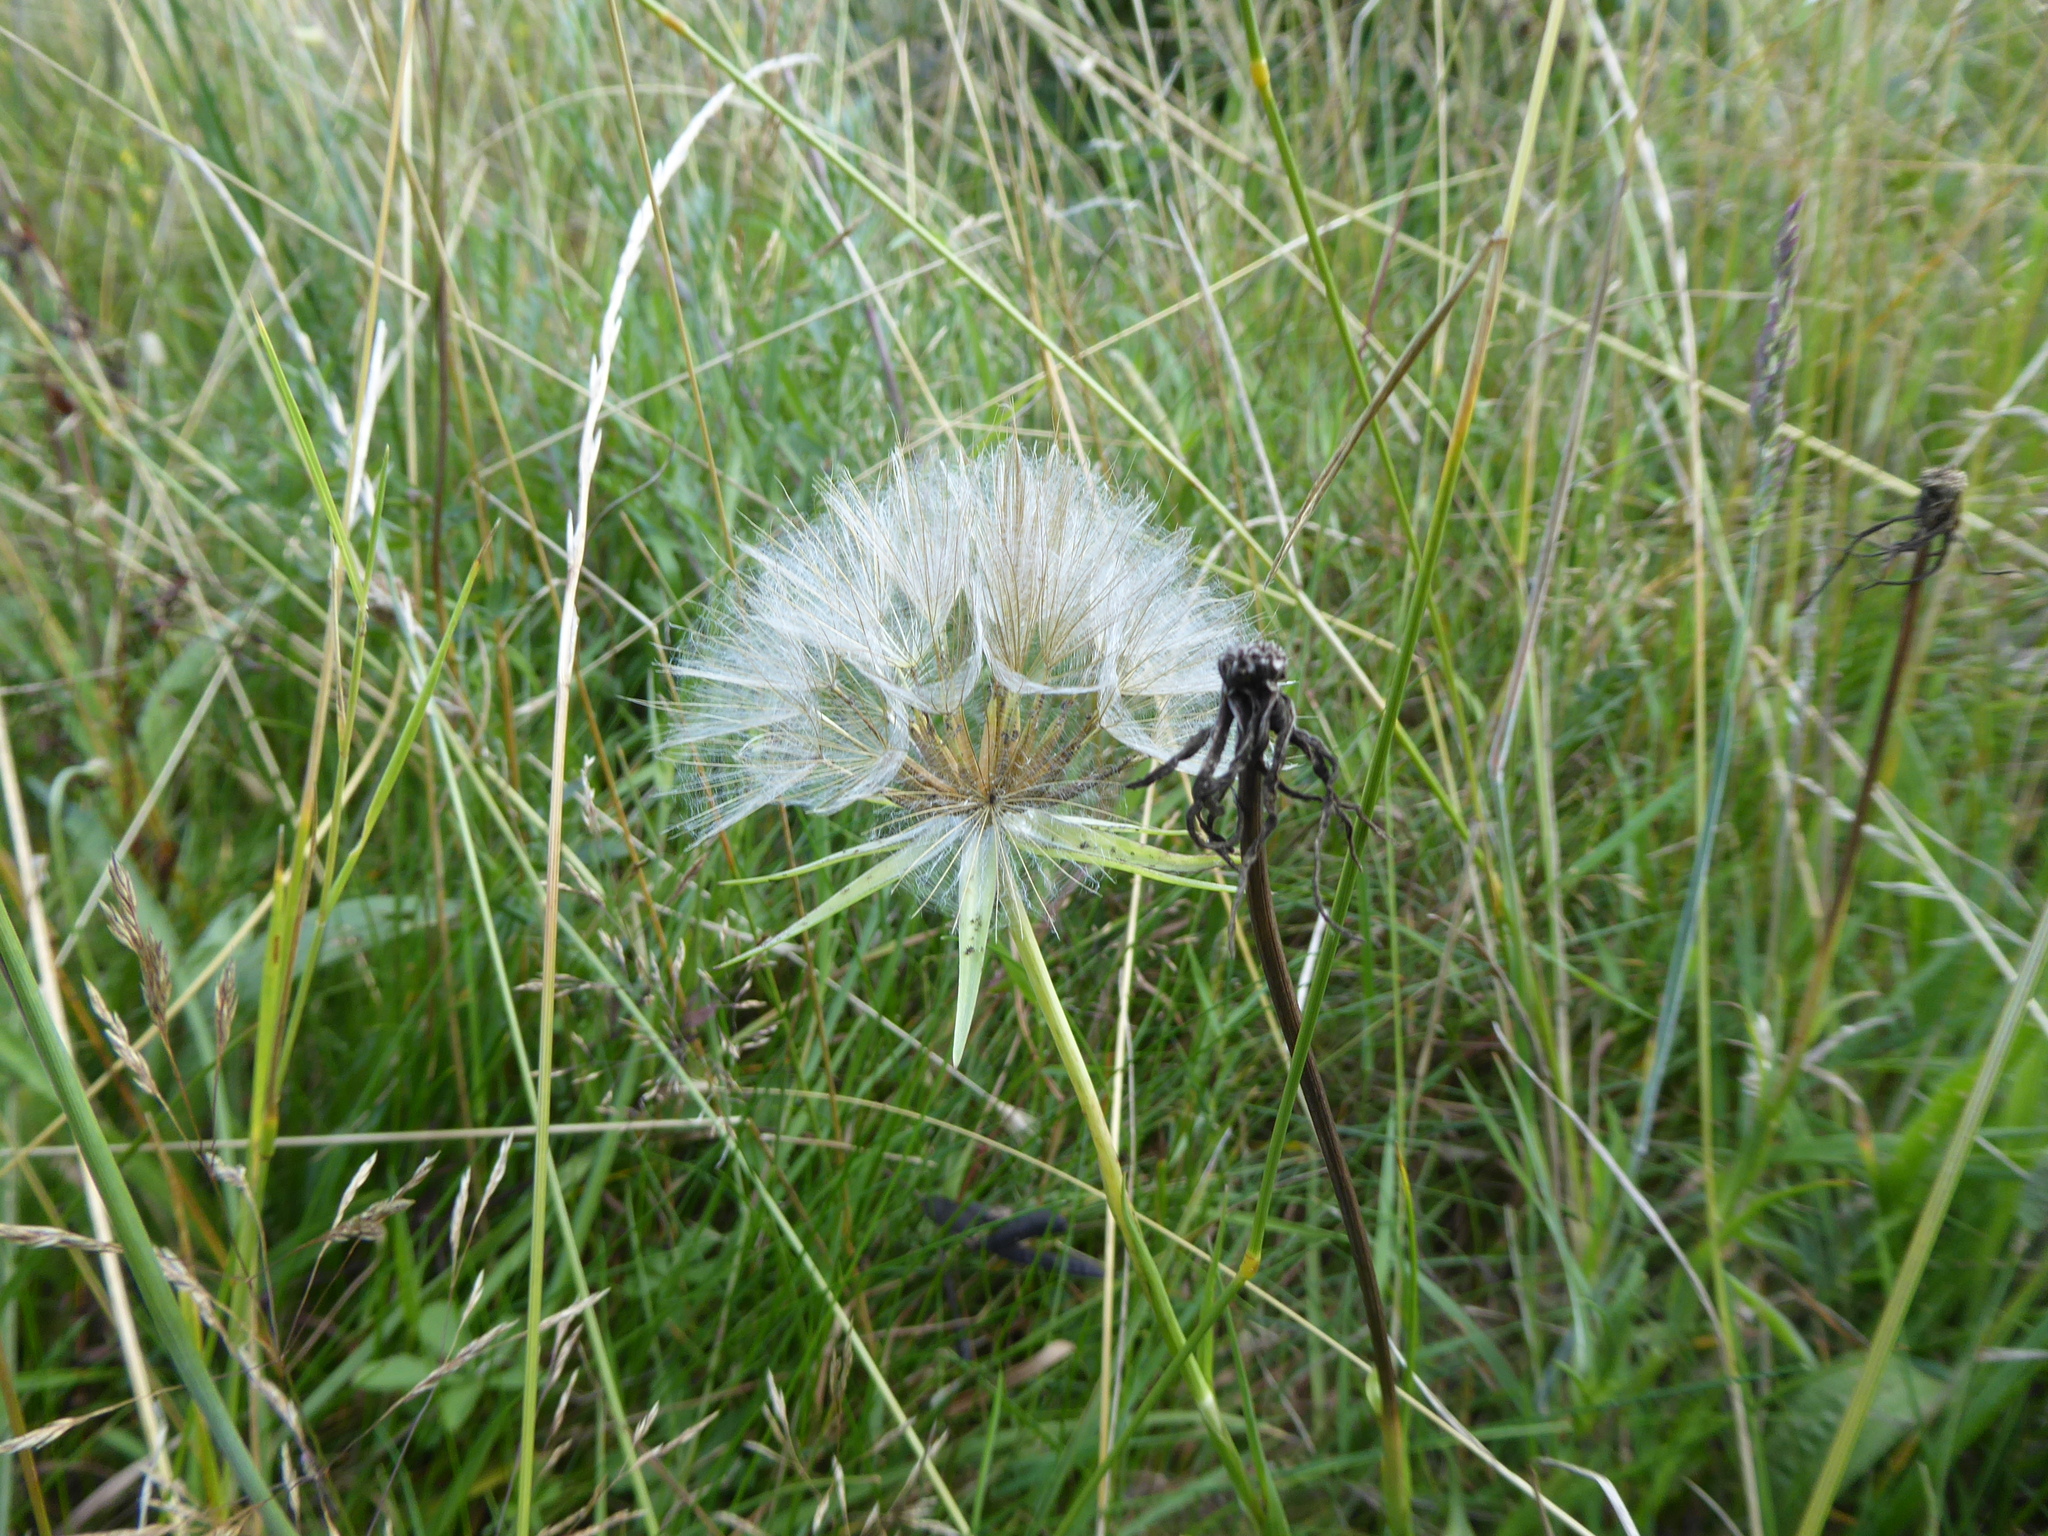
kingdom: Plantae
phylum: Tracheophyta
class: Magnoliopsida
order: Asterales
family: Asteraceae
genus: Tragopogon
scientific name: Tragopogon pratensis
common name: Goat's-beard
